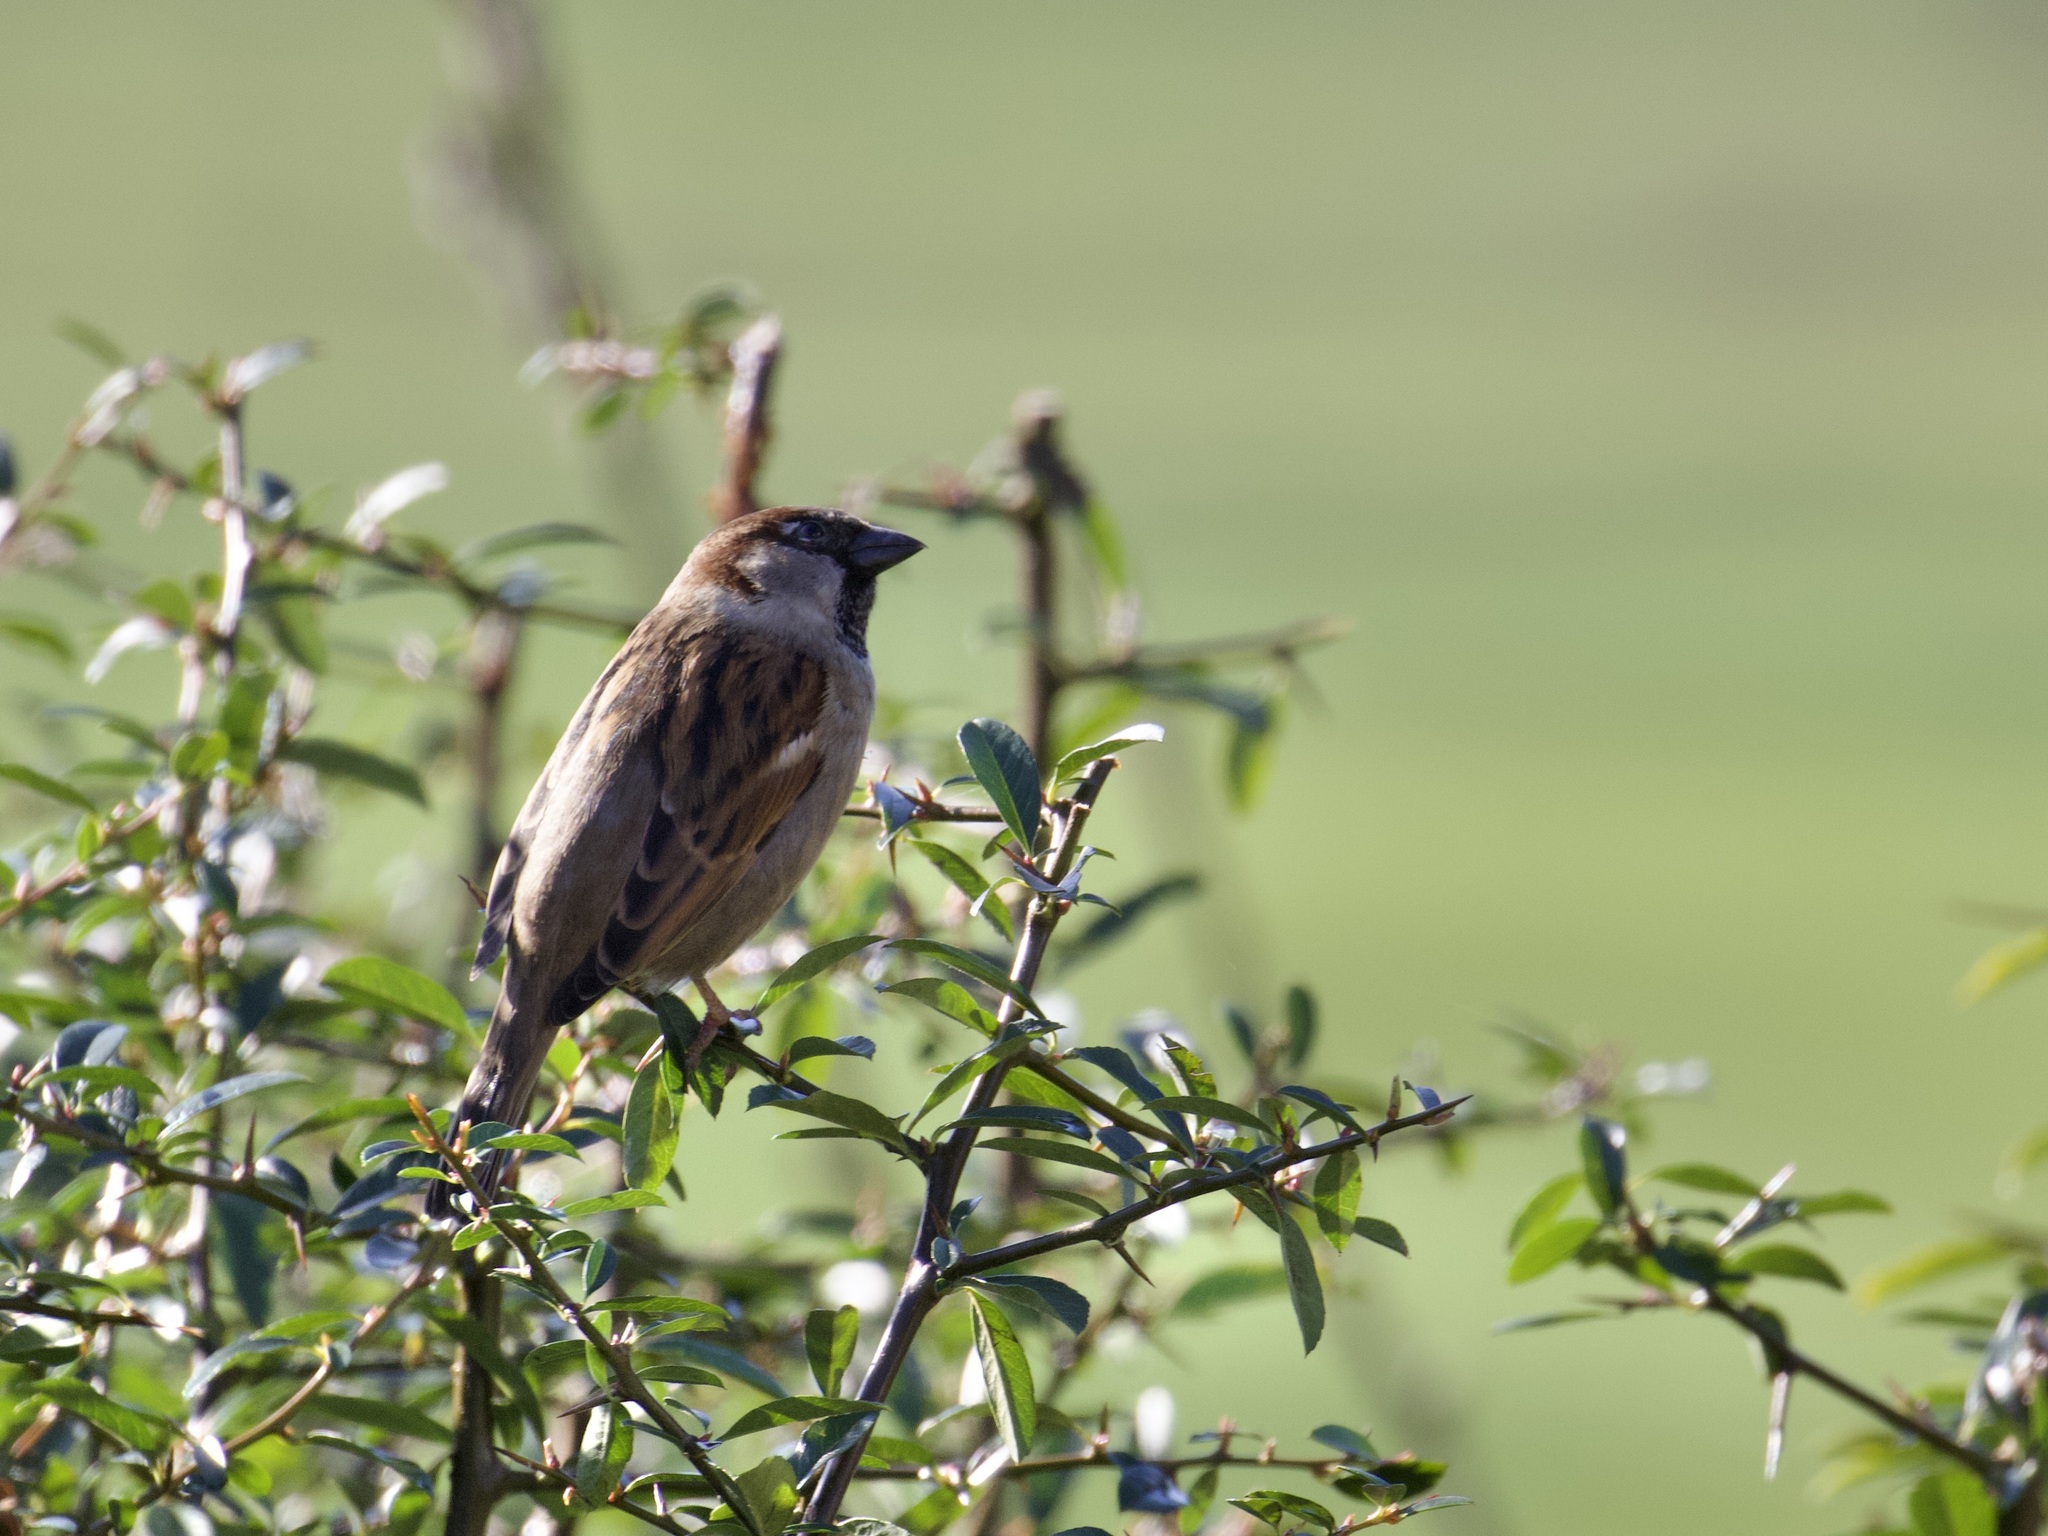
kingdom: Animalia
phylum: Chordata
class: Aves
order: Passeriformes
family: Passeridae
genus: Passer
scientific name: Passer domesticus
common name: House sparrow
